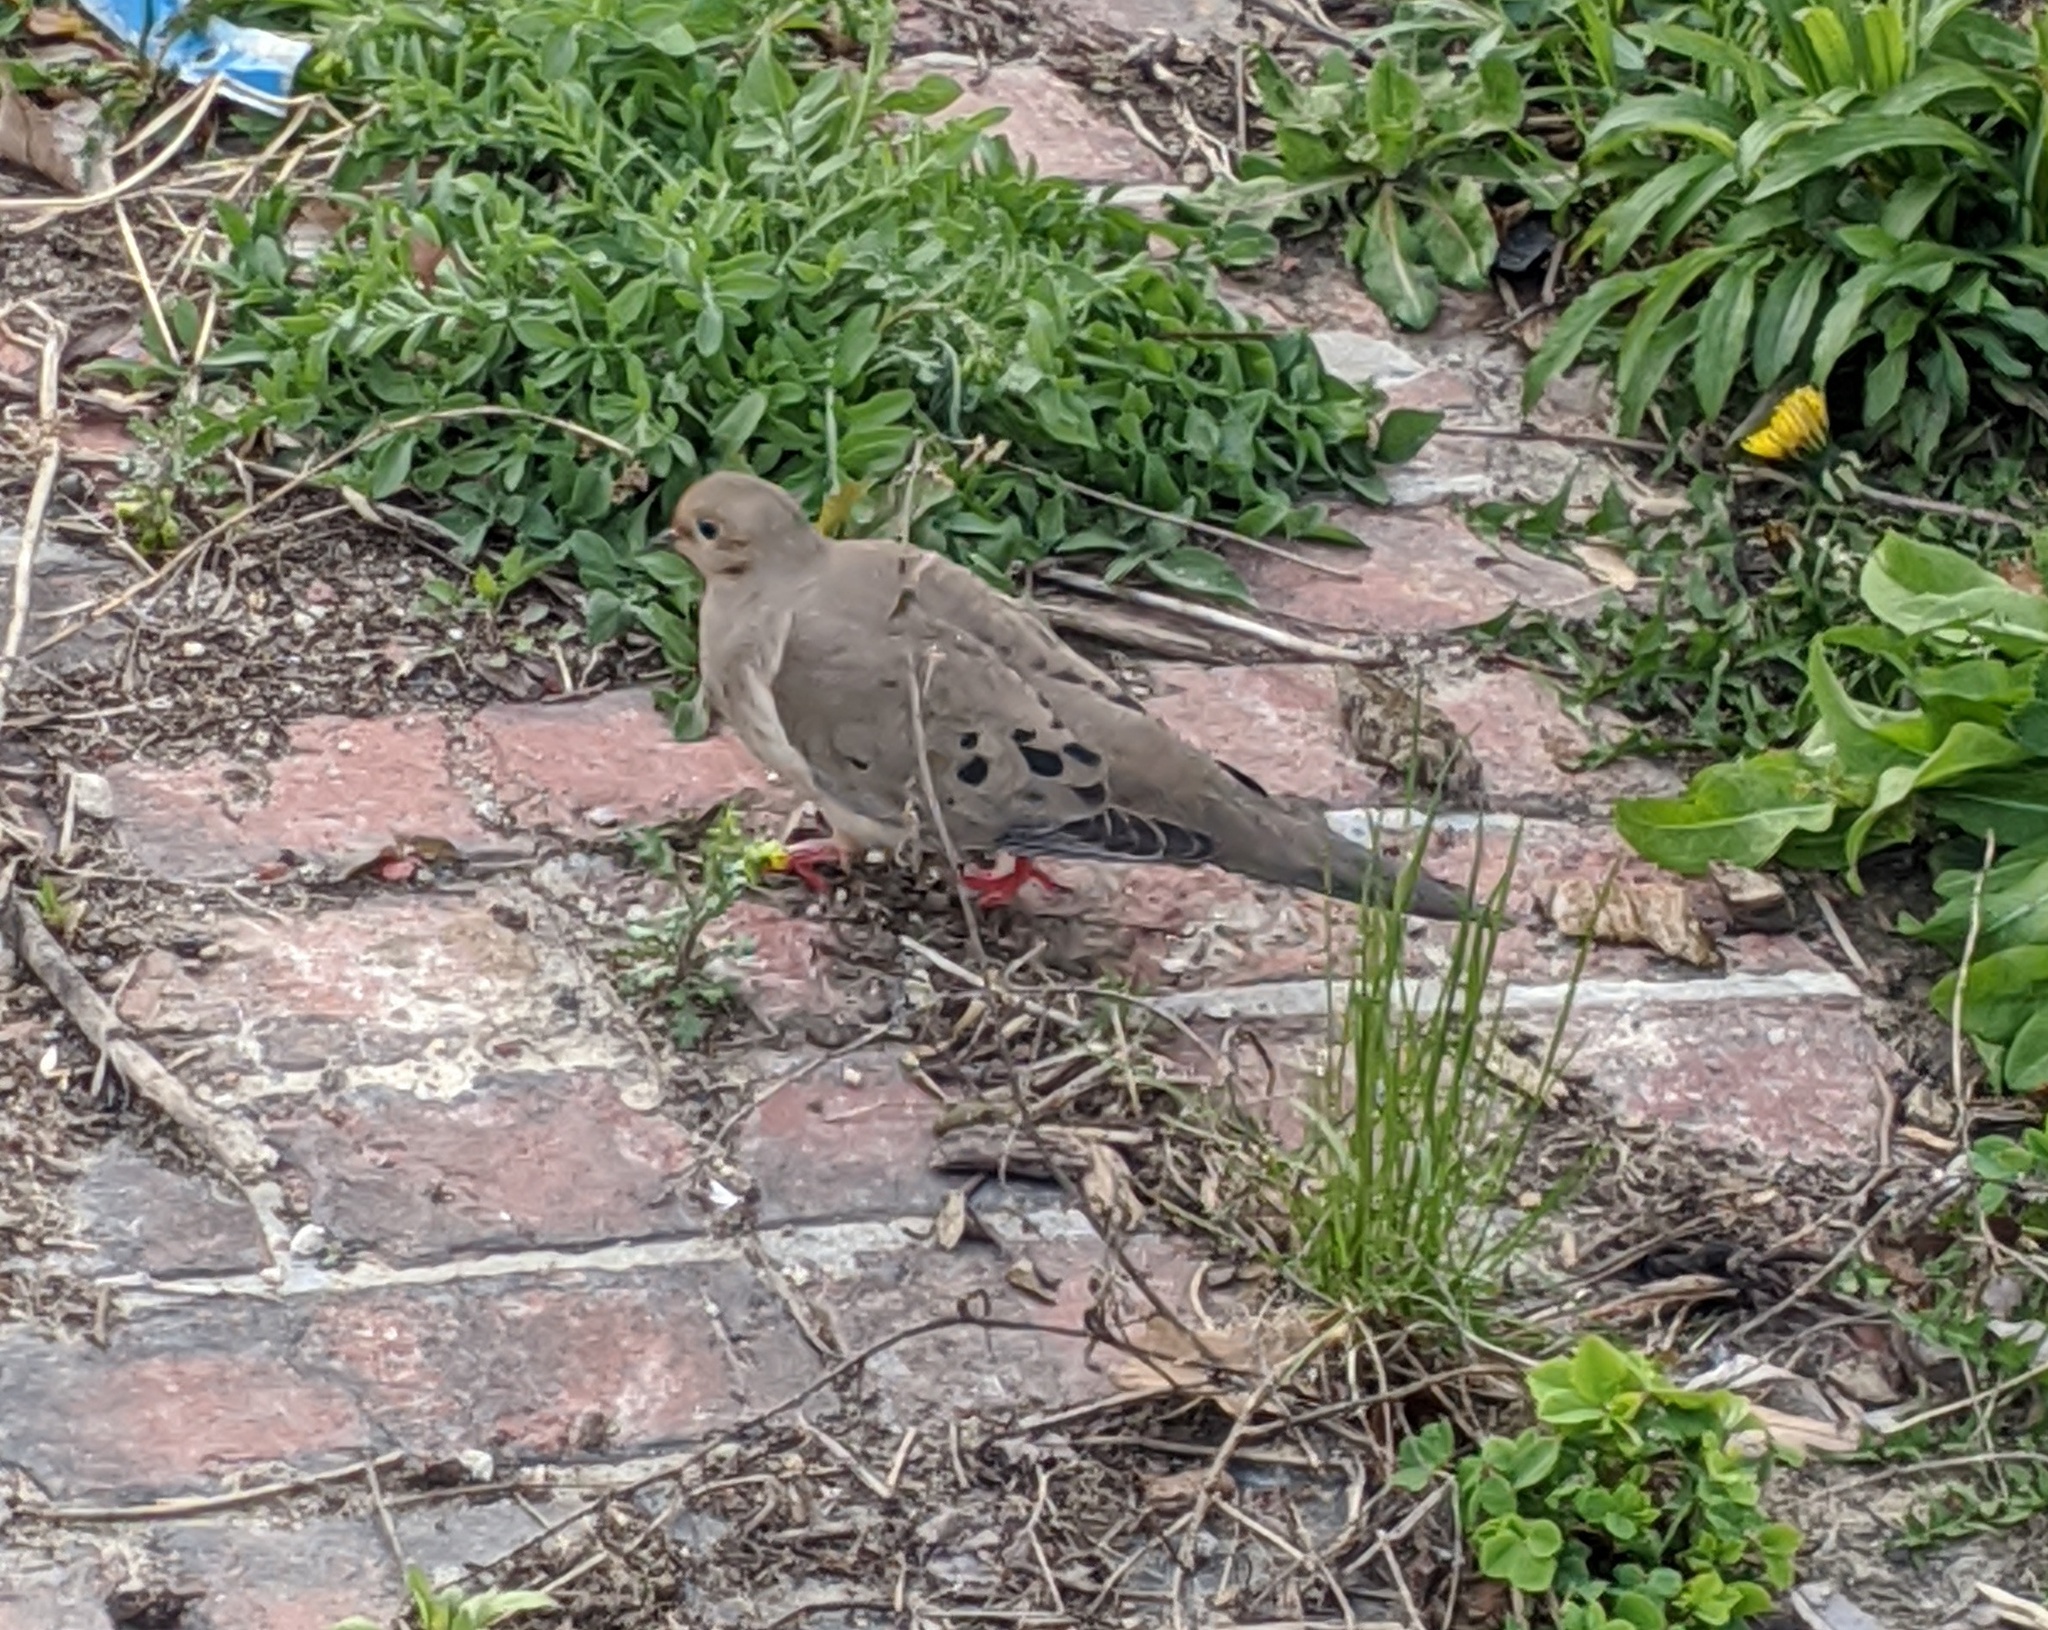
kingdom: Animalia
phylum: Chordata
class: Aves
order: Columbiformes
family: Columbidae
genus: Zenaida
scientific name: Zenaida macroura
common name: Mourning dove
